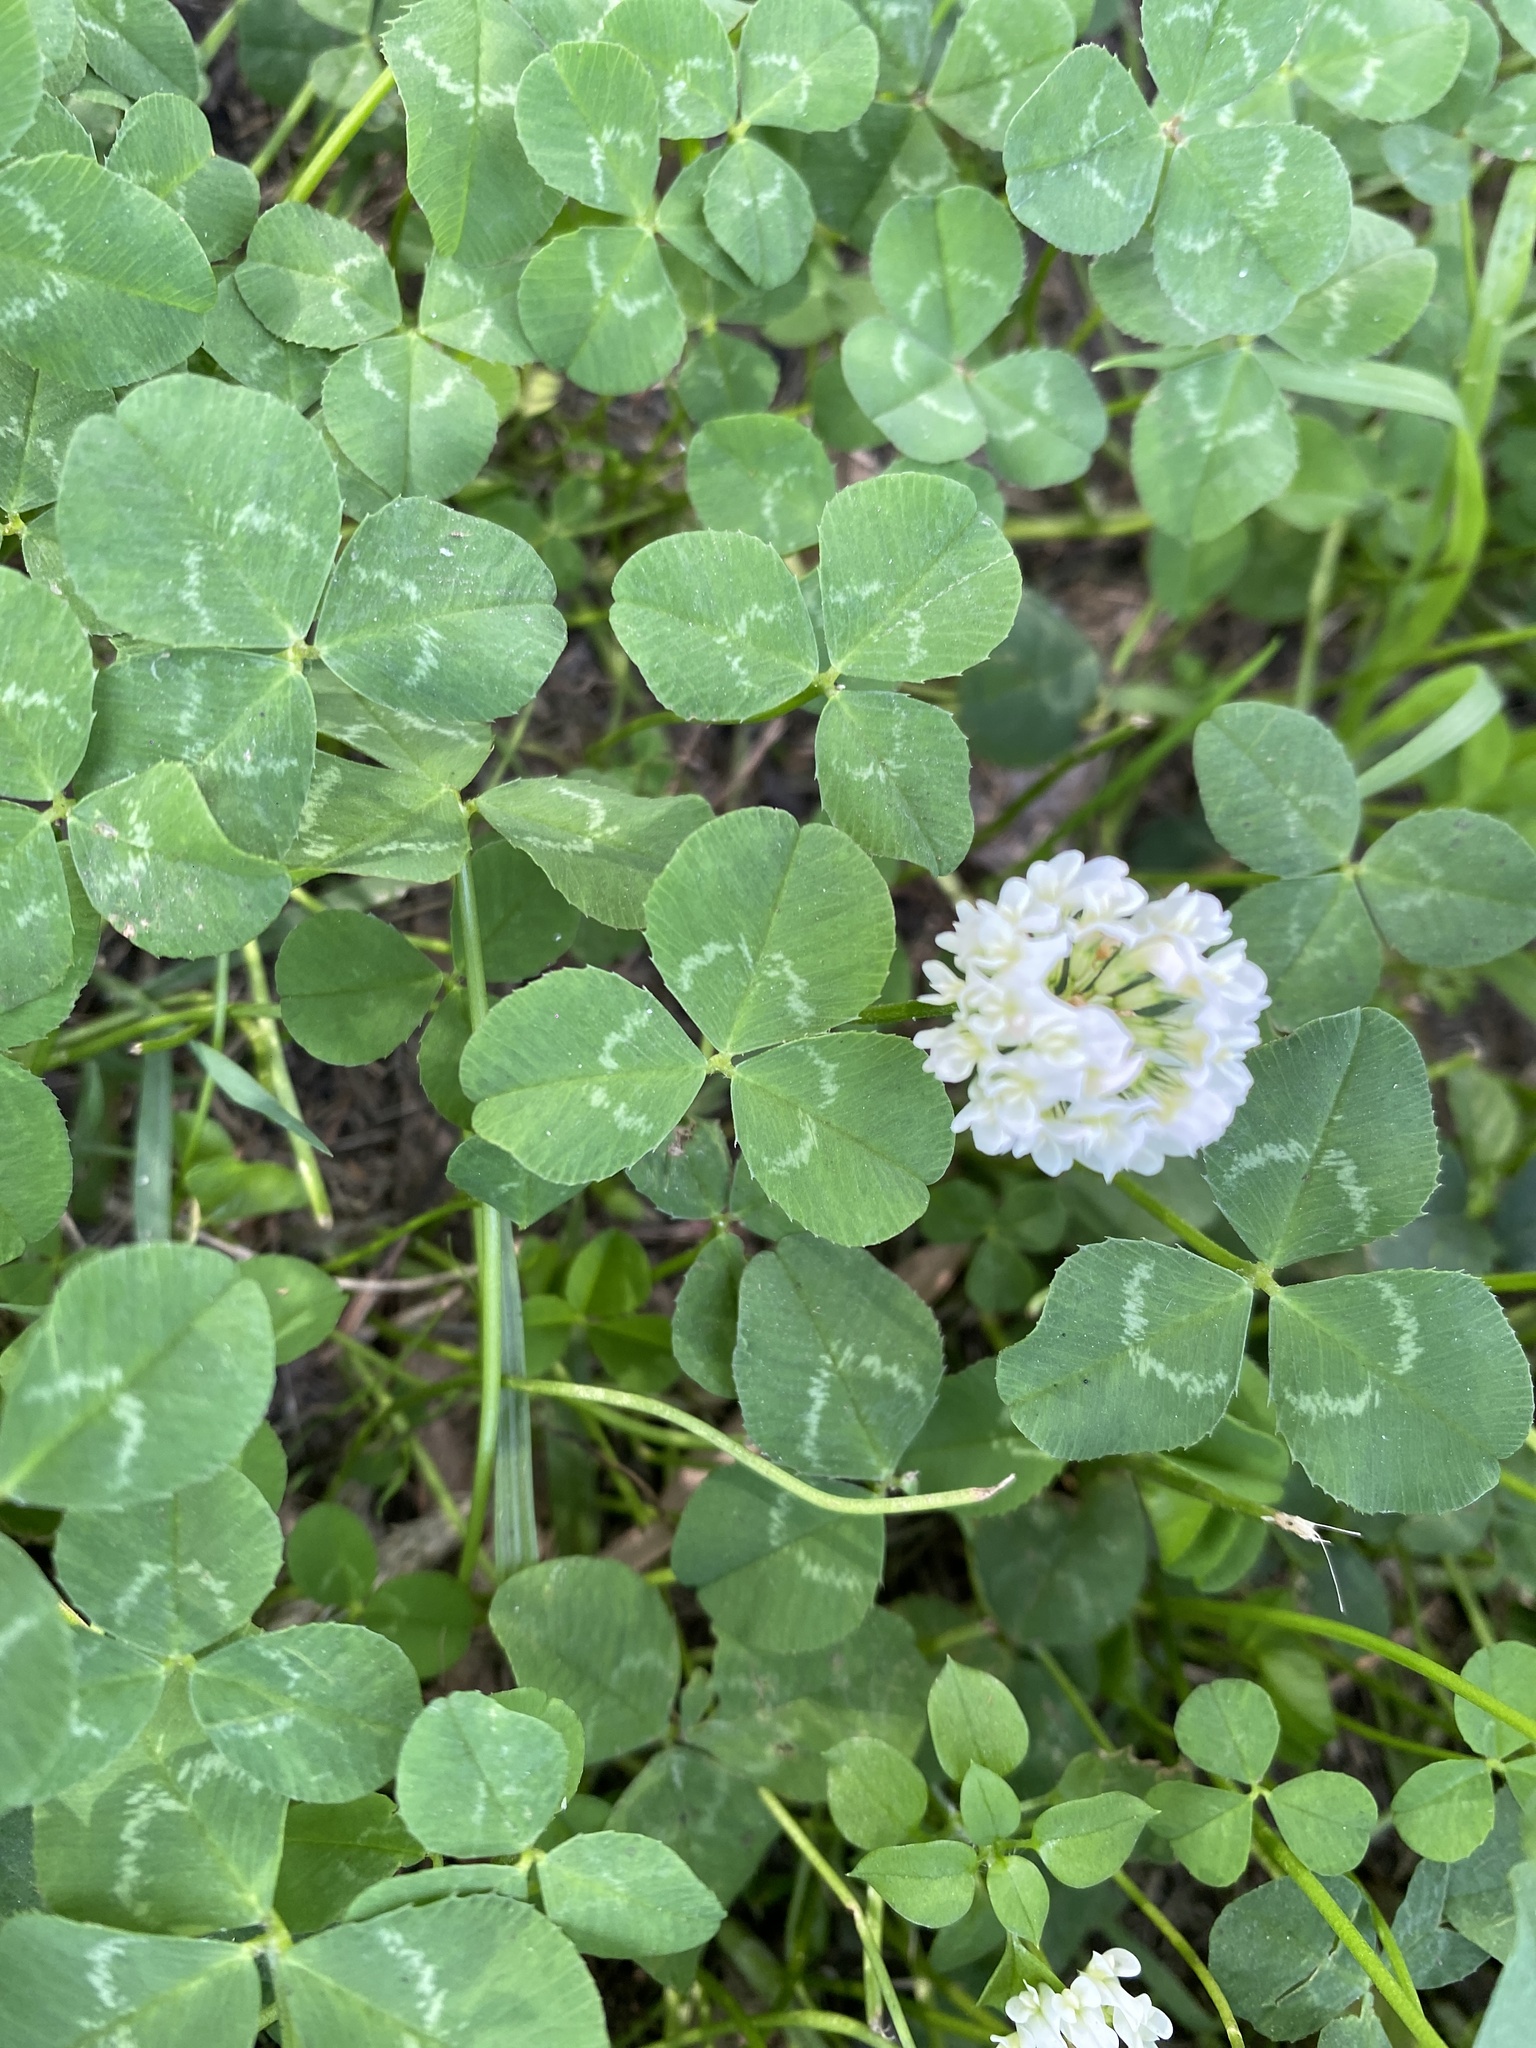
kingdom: Plantae
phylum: Tracheophyta
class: Magnoliopsida
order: Fabales
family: Fabaceae
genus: Trifolium
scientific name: Trifolium repens
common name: White clover
